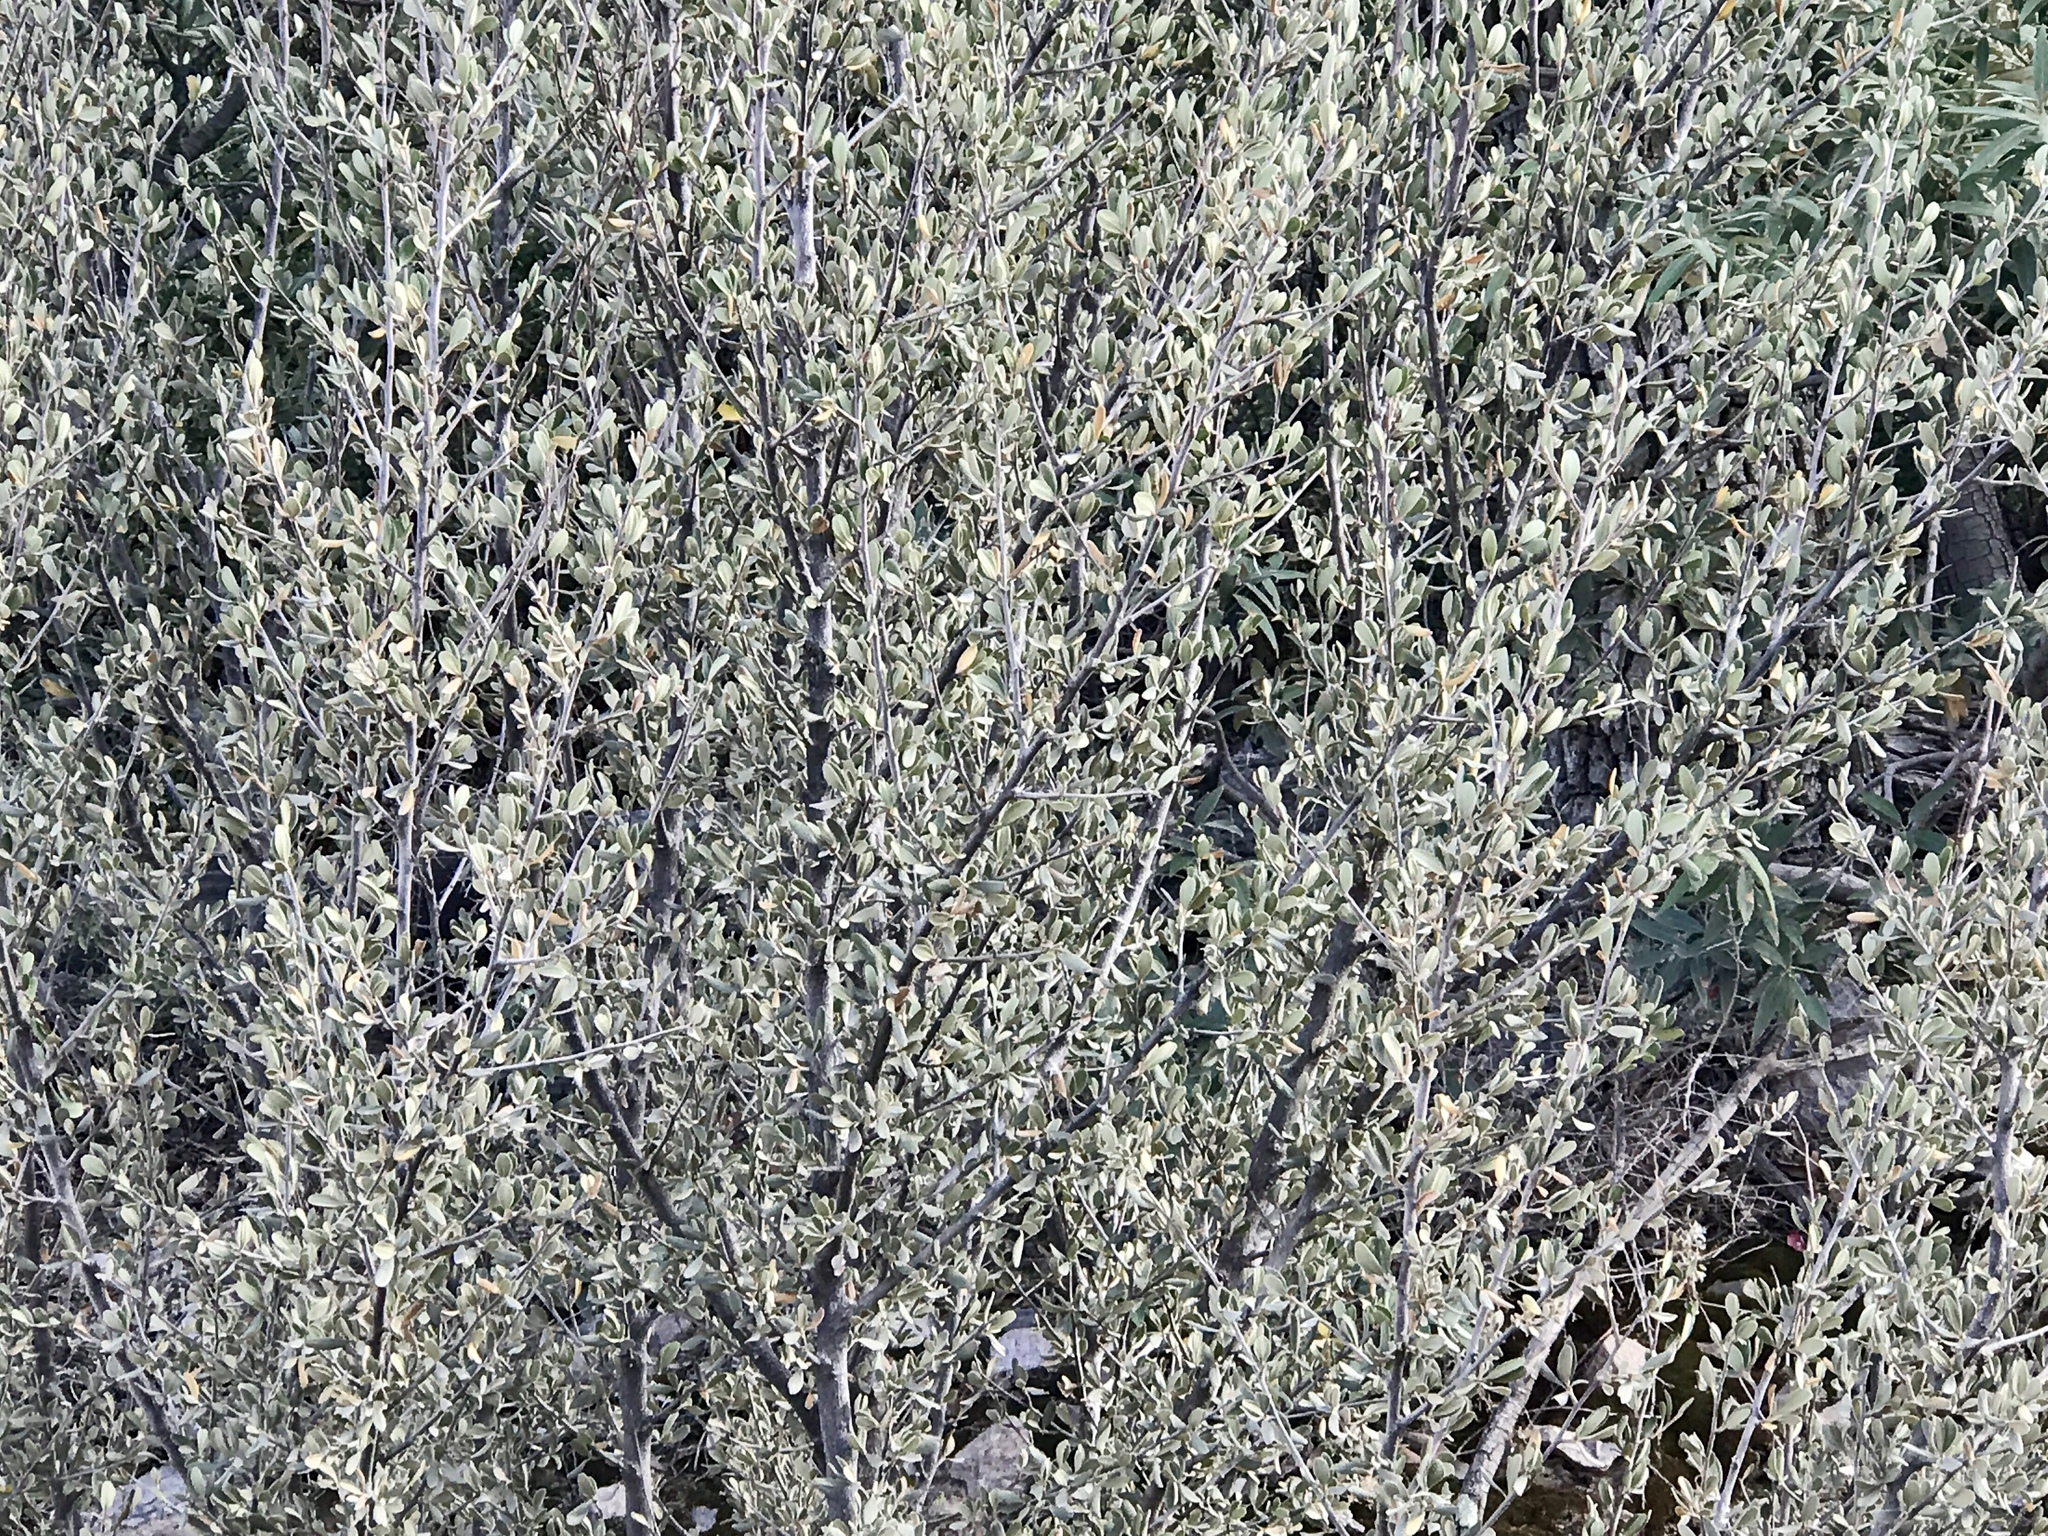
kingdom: Plantae
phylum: Tracheophyta
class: Magnoliopsida
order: Rosales
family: Rosaceae
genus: Cercocarpus
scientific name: Cercocarpus breviflorus
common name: Wright's mountain-mahogany
